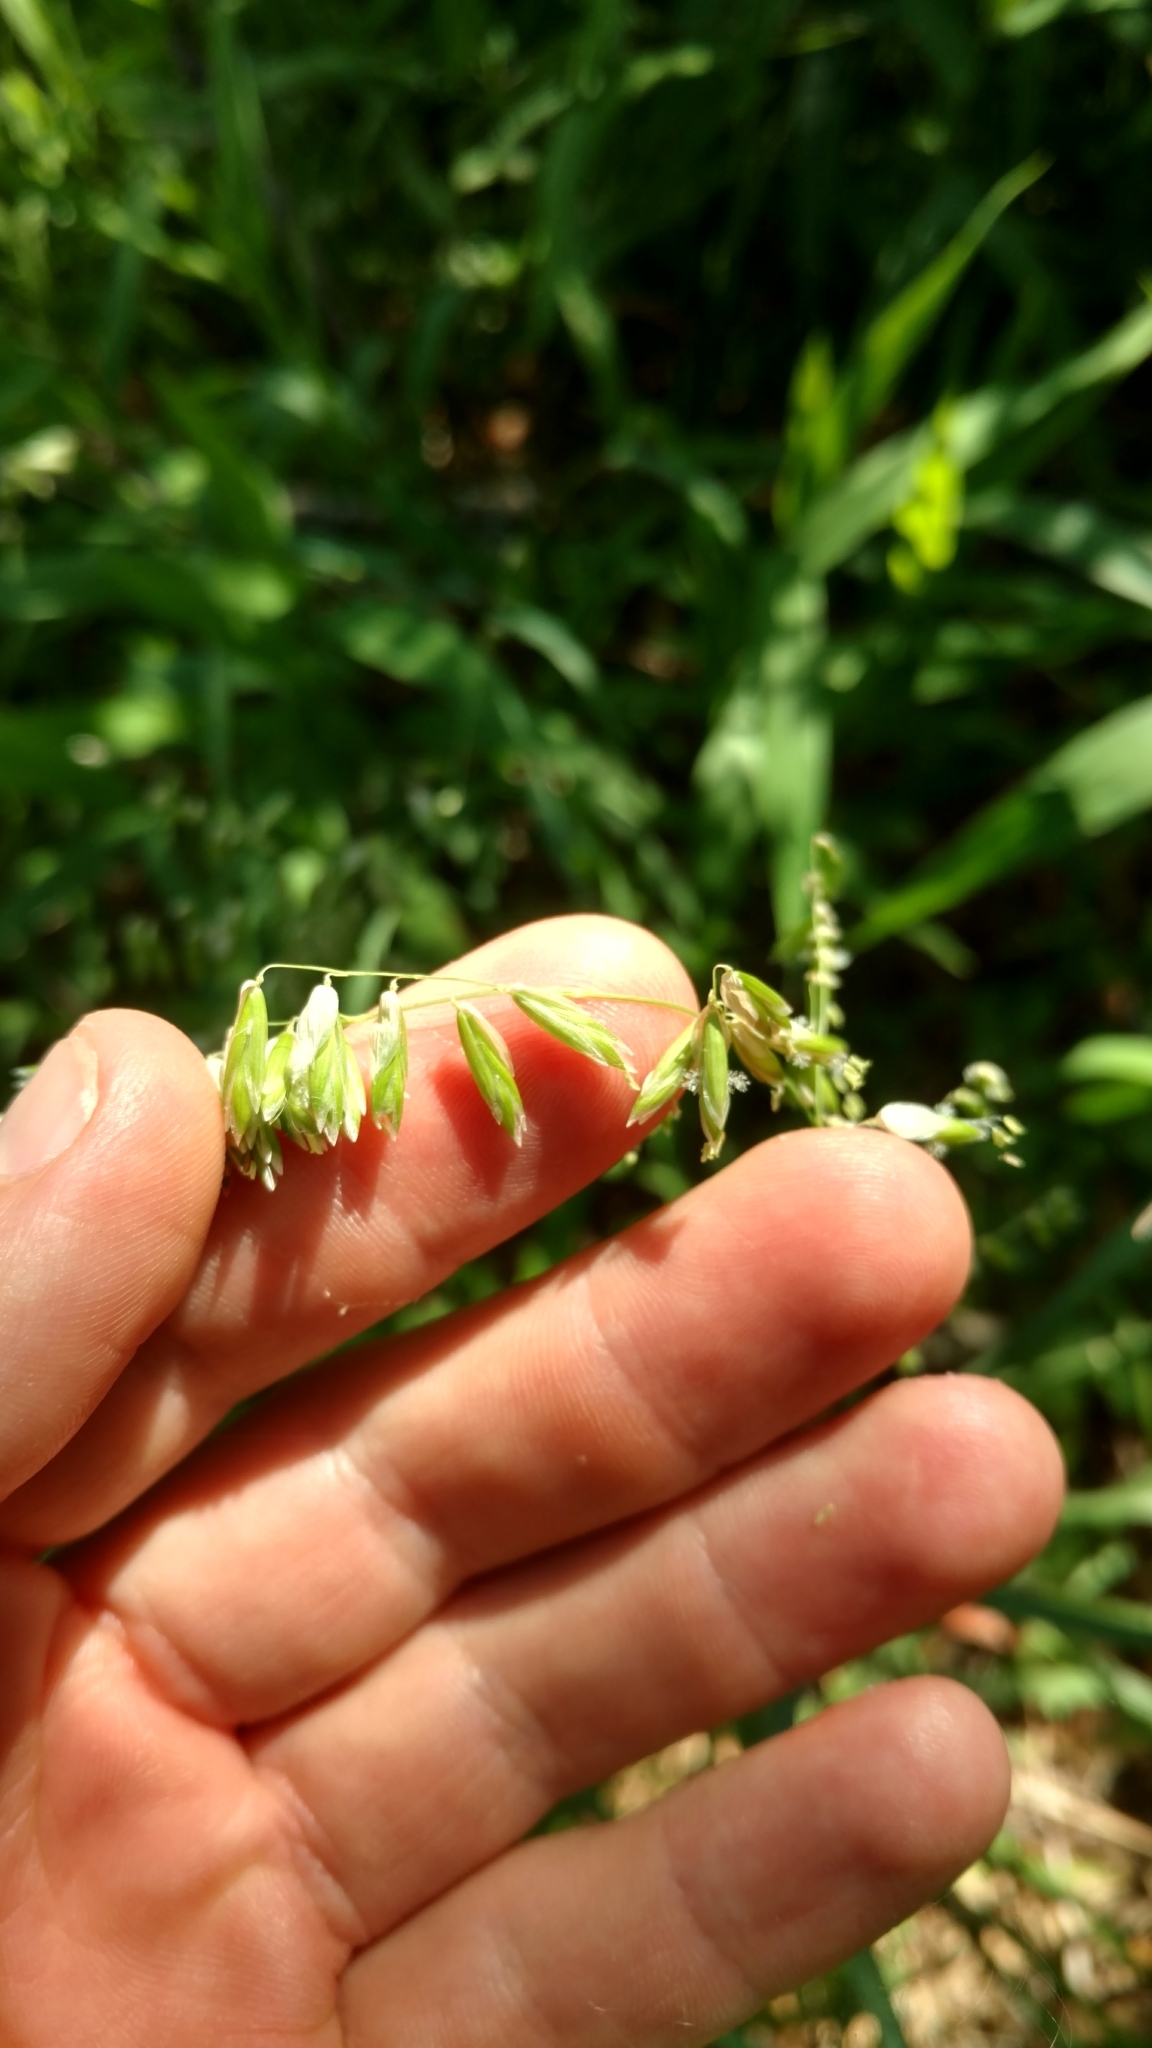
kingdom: Plantae
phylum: Tracheophyta
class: Liliopsida
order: Poales
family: Poaceae
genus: Melica
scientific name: Melica nitens
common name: Three-flower melic
